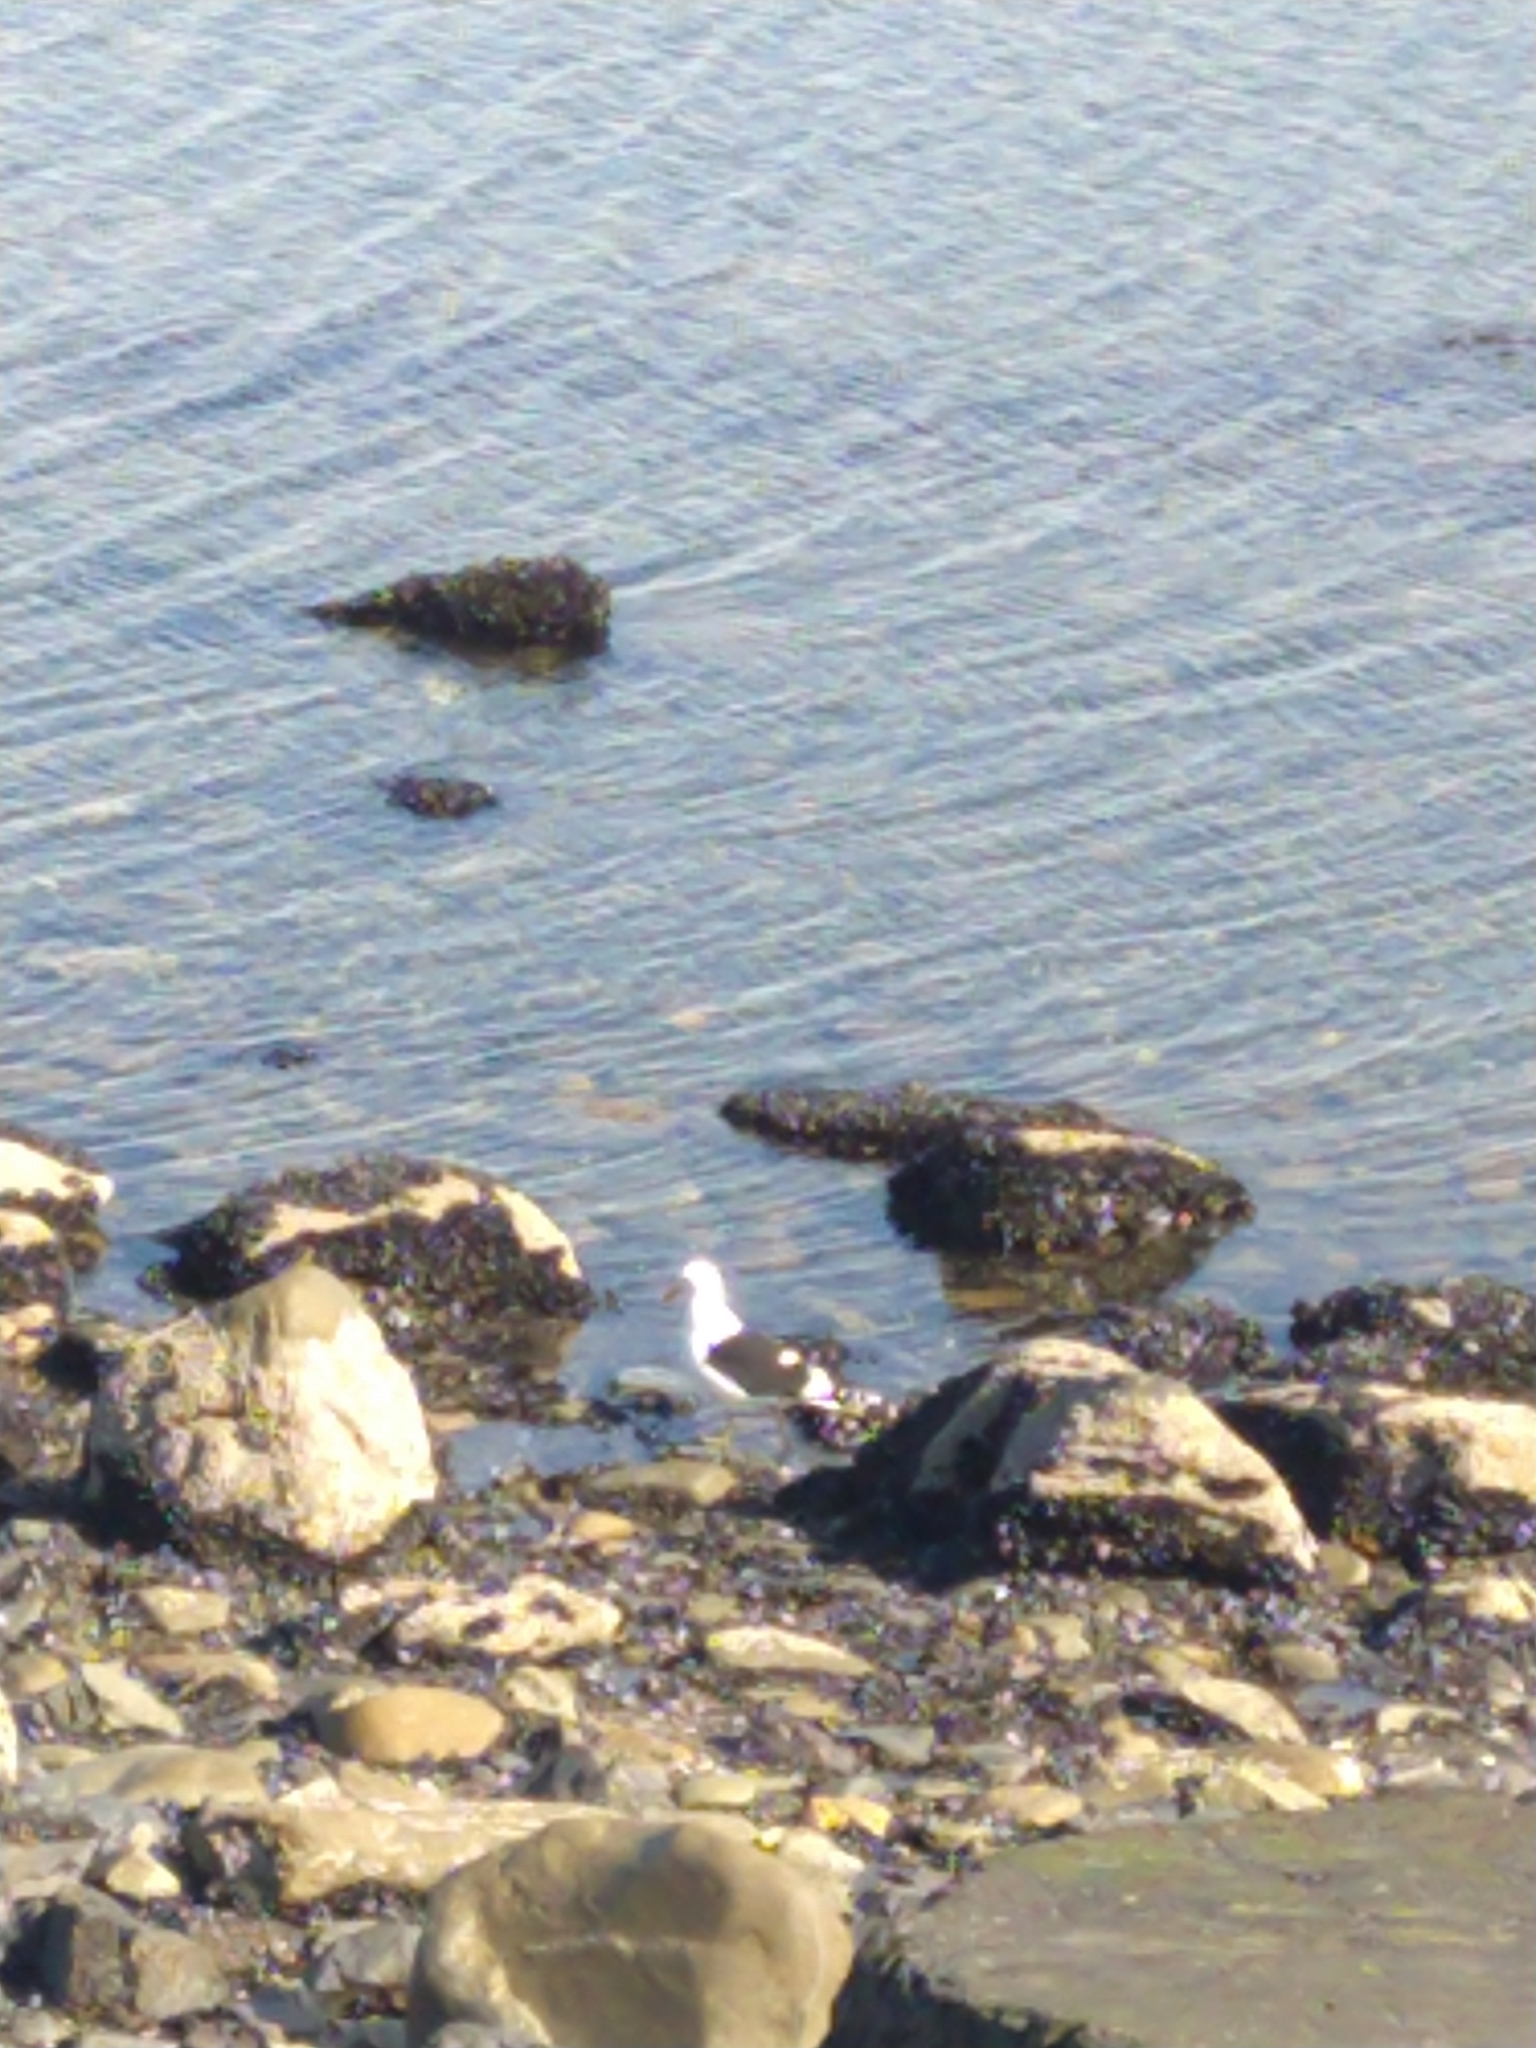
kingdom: Animalia
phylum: Chordata
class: Aves
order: Charadriiformes
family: Laridae
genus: Larus
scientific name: Larus dominicanus
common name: Kelp gull
